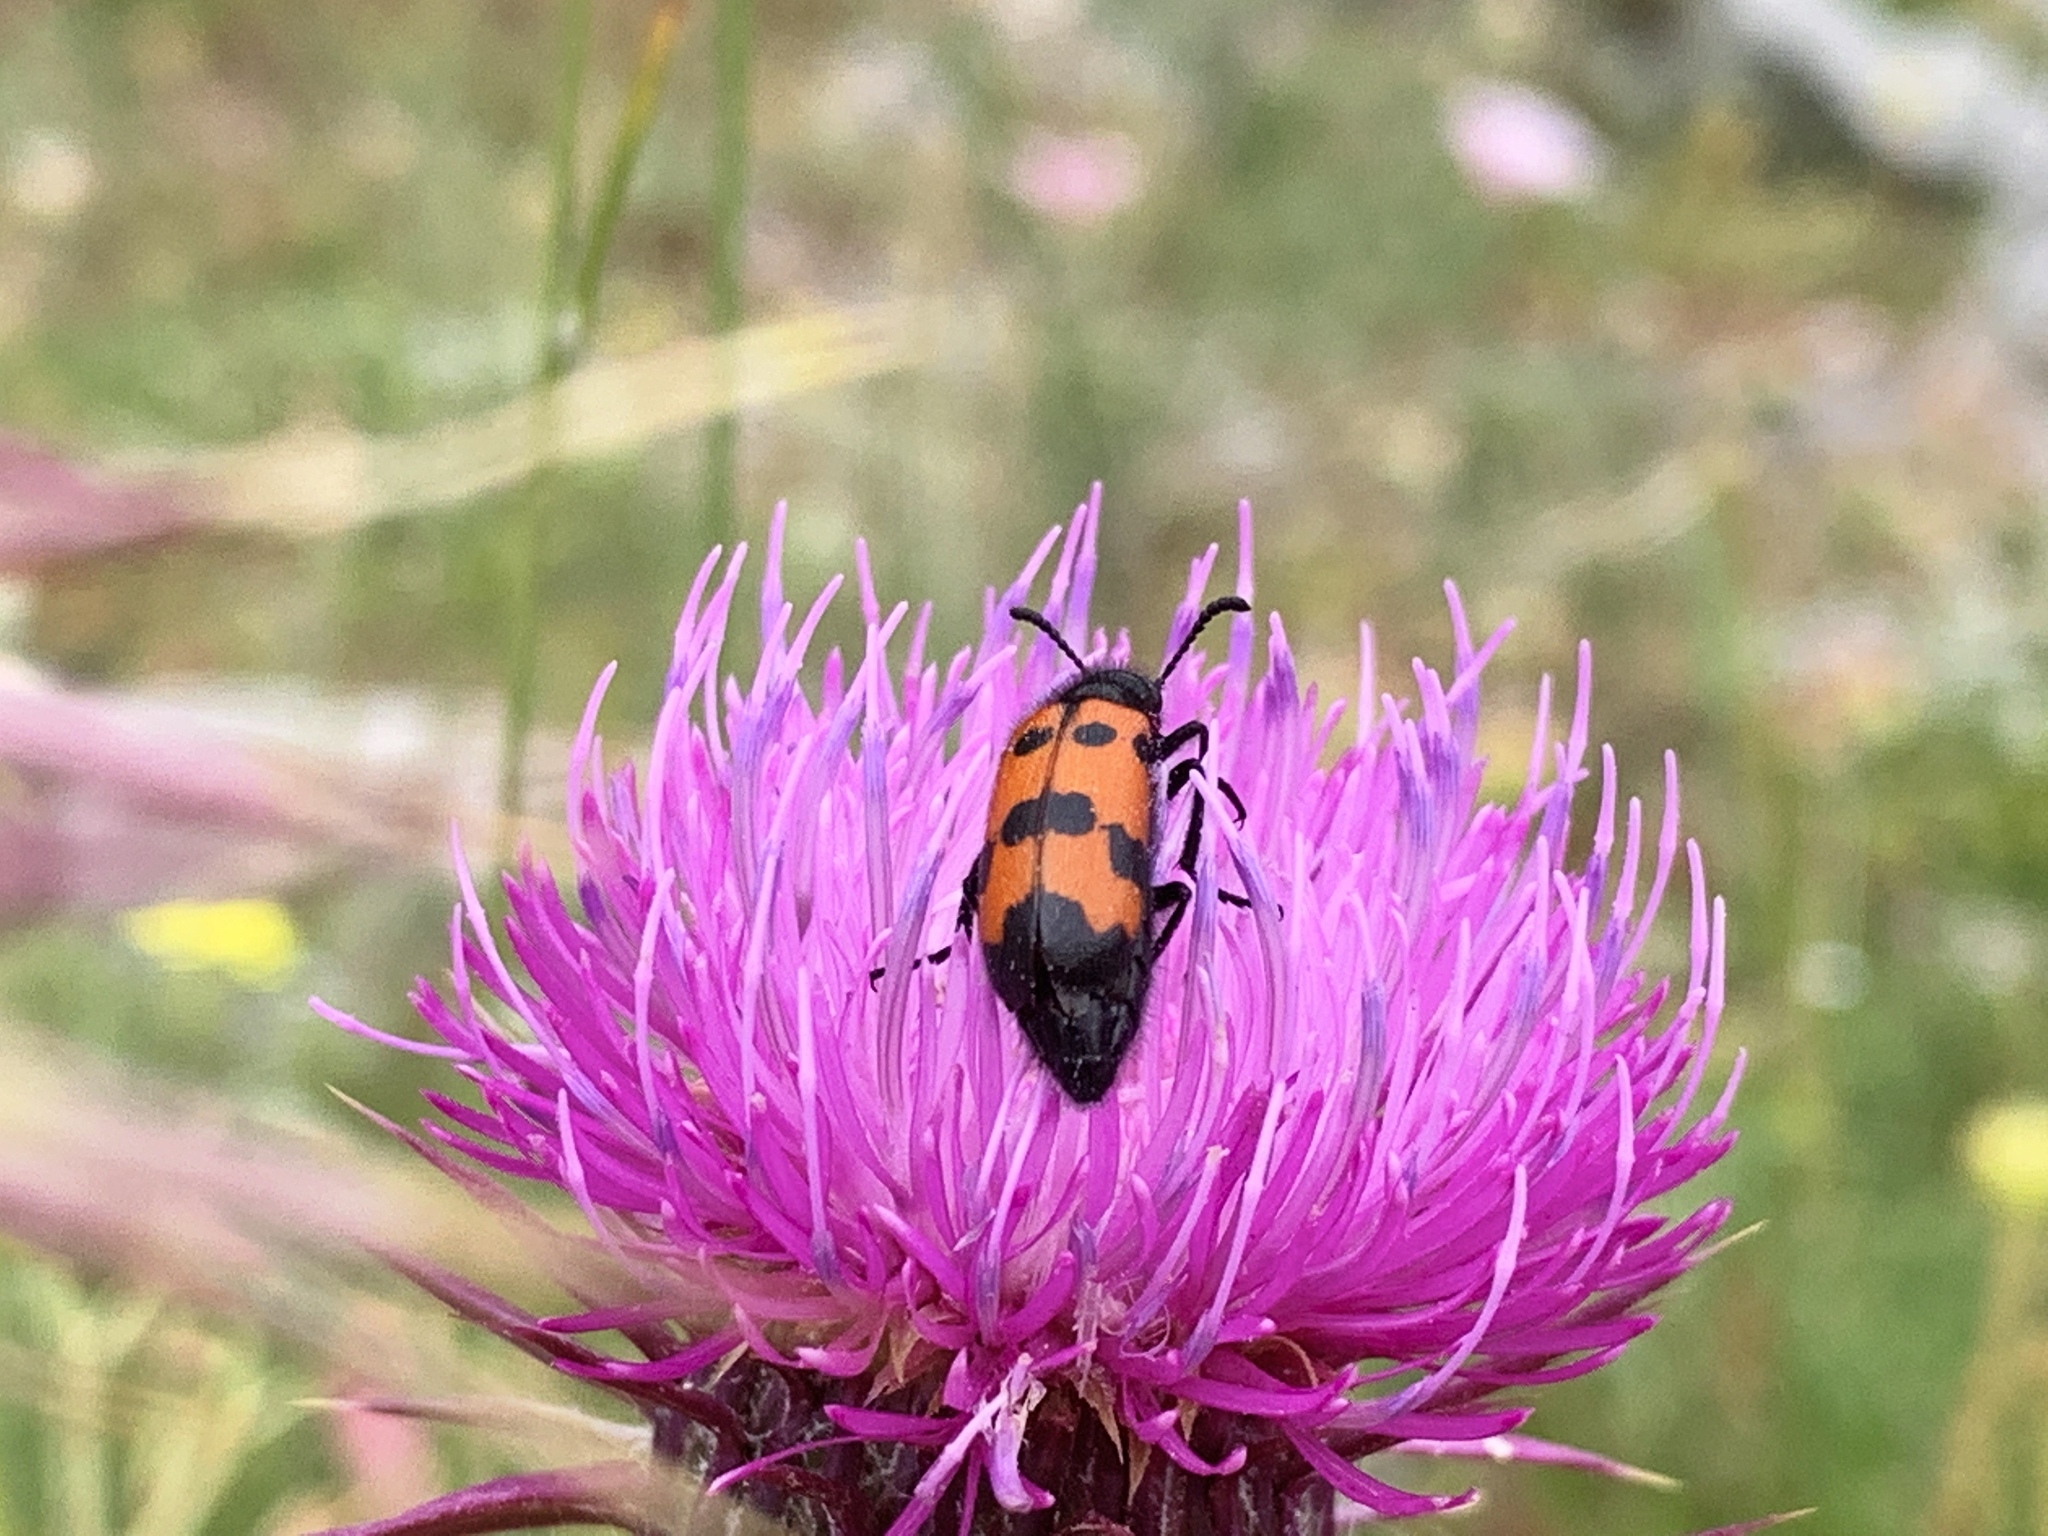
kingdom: Animalia
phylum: Arthropoda
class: Insecta
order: Coleoptera
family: Meloidae
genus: Mylabris
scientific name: Mylabris quadripunctata
